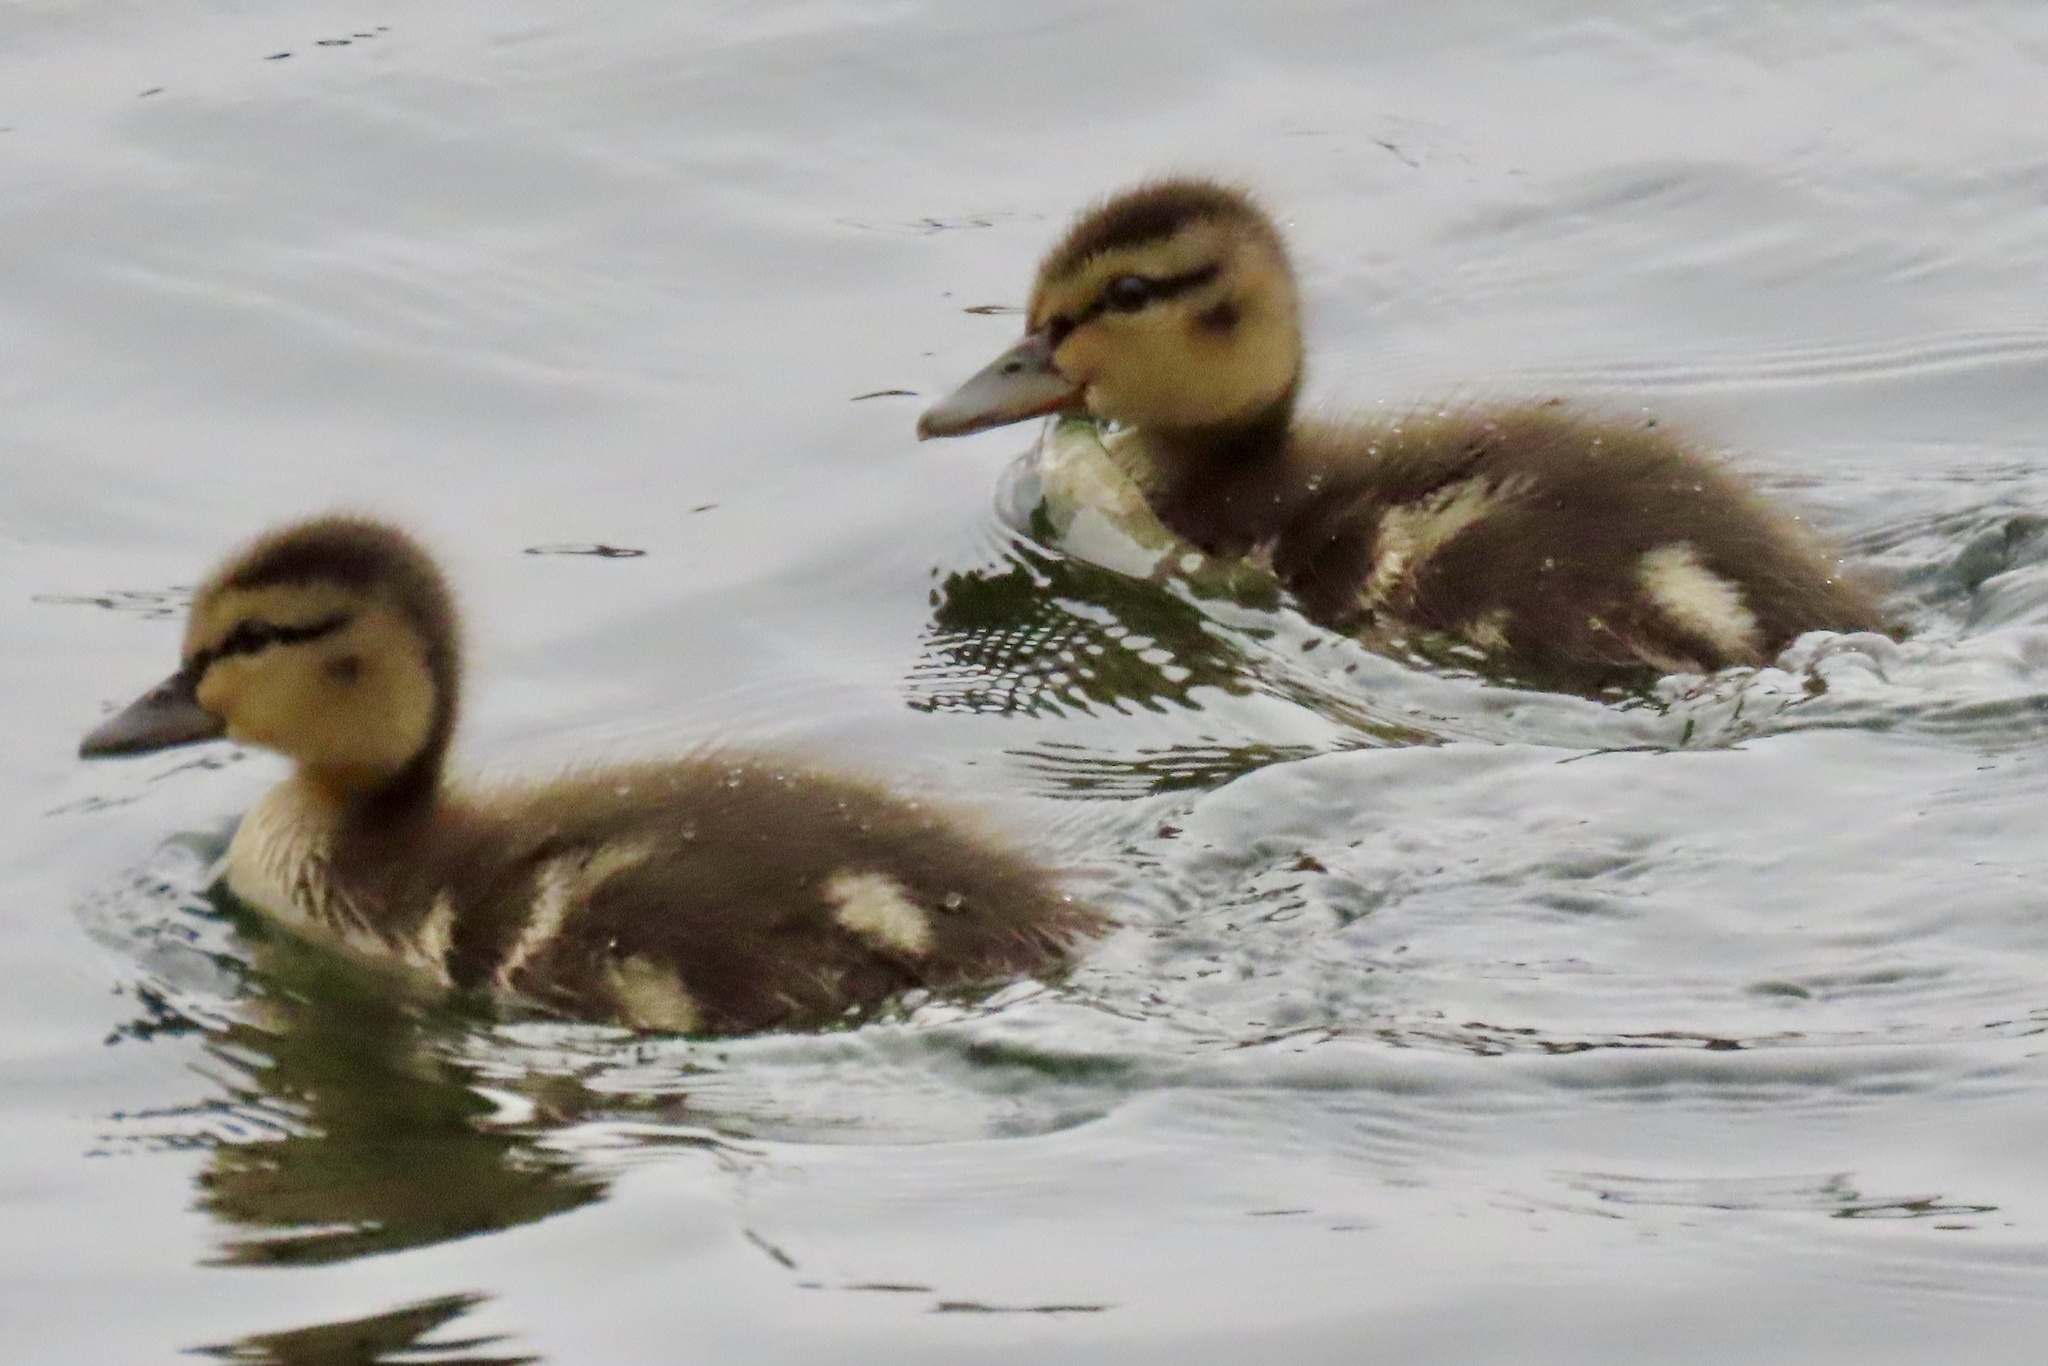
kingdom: Animalia
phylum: Chordata
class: Aves
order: Anseriformes
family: Anatidae
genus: Anas
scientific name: Anas platyrhynchos
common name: Mallard
